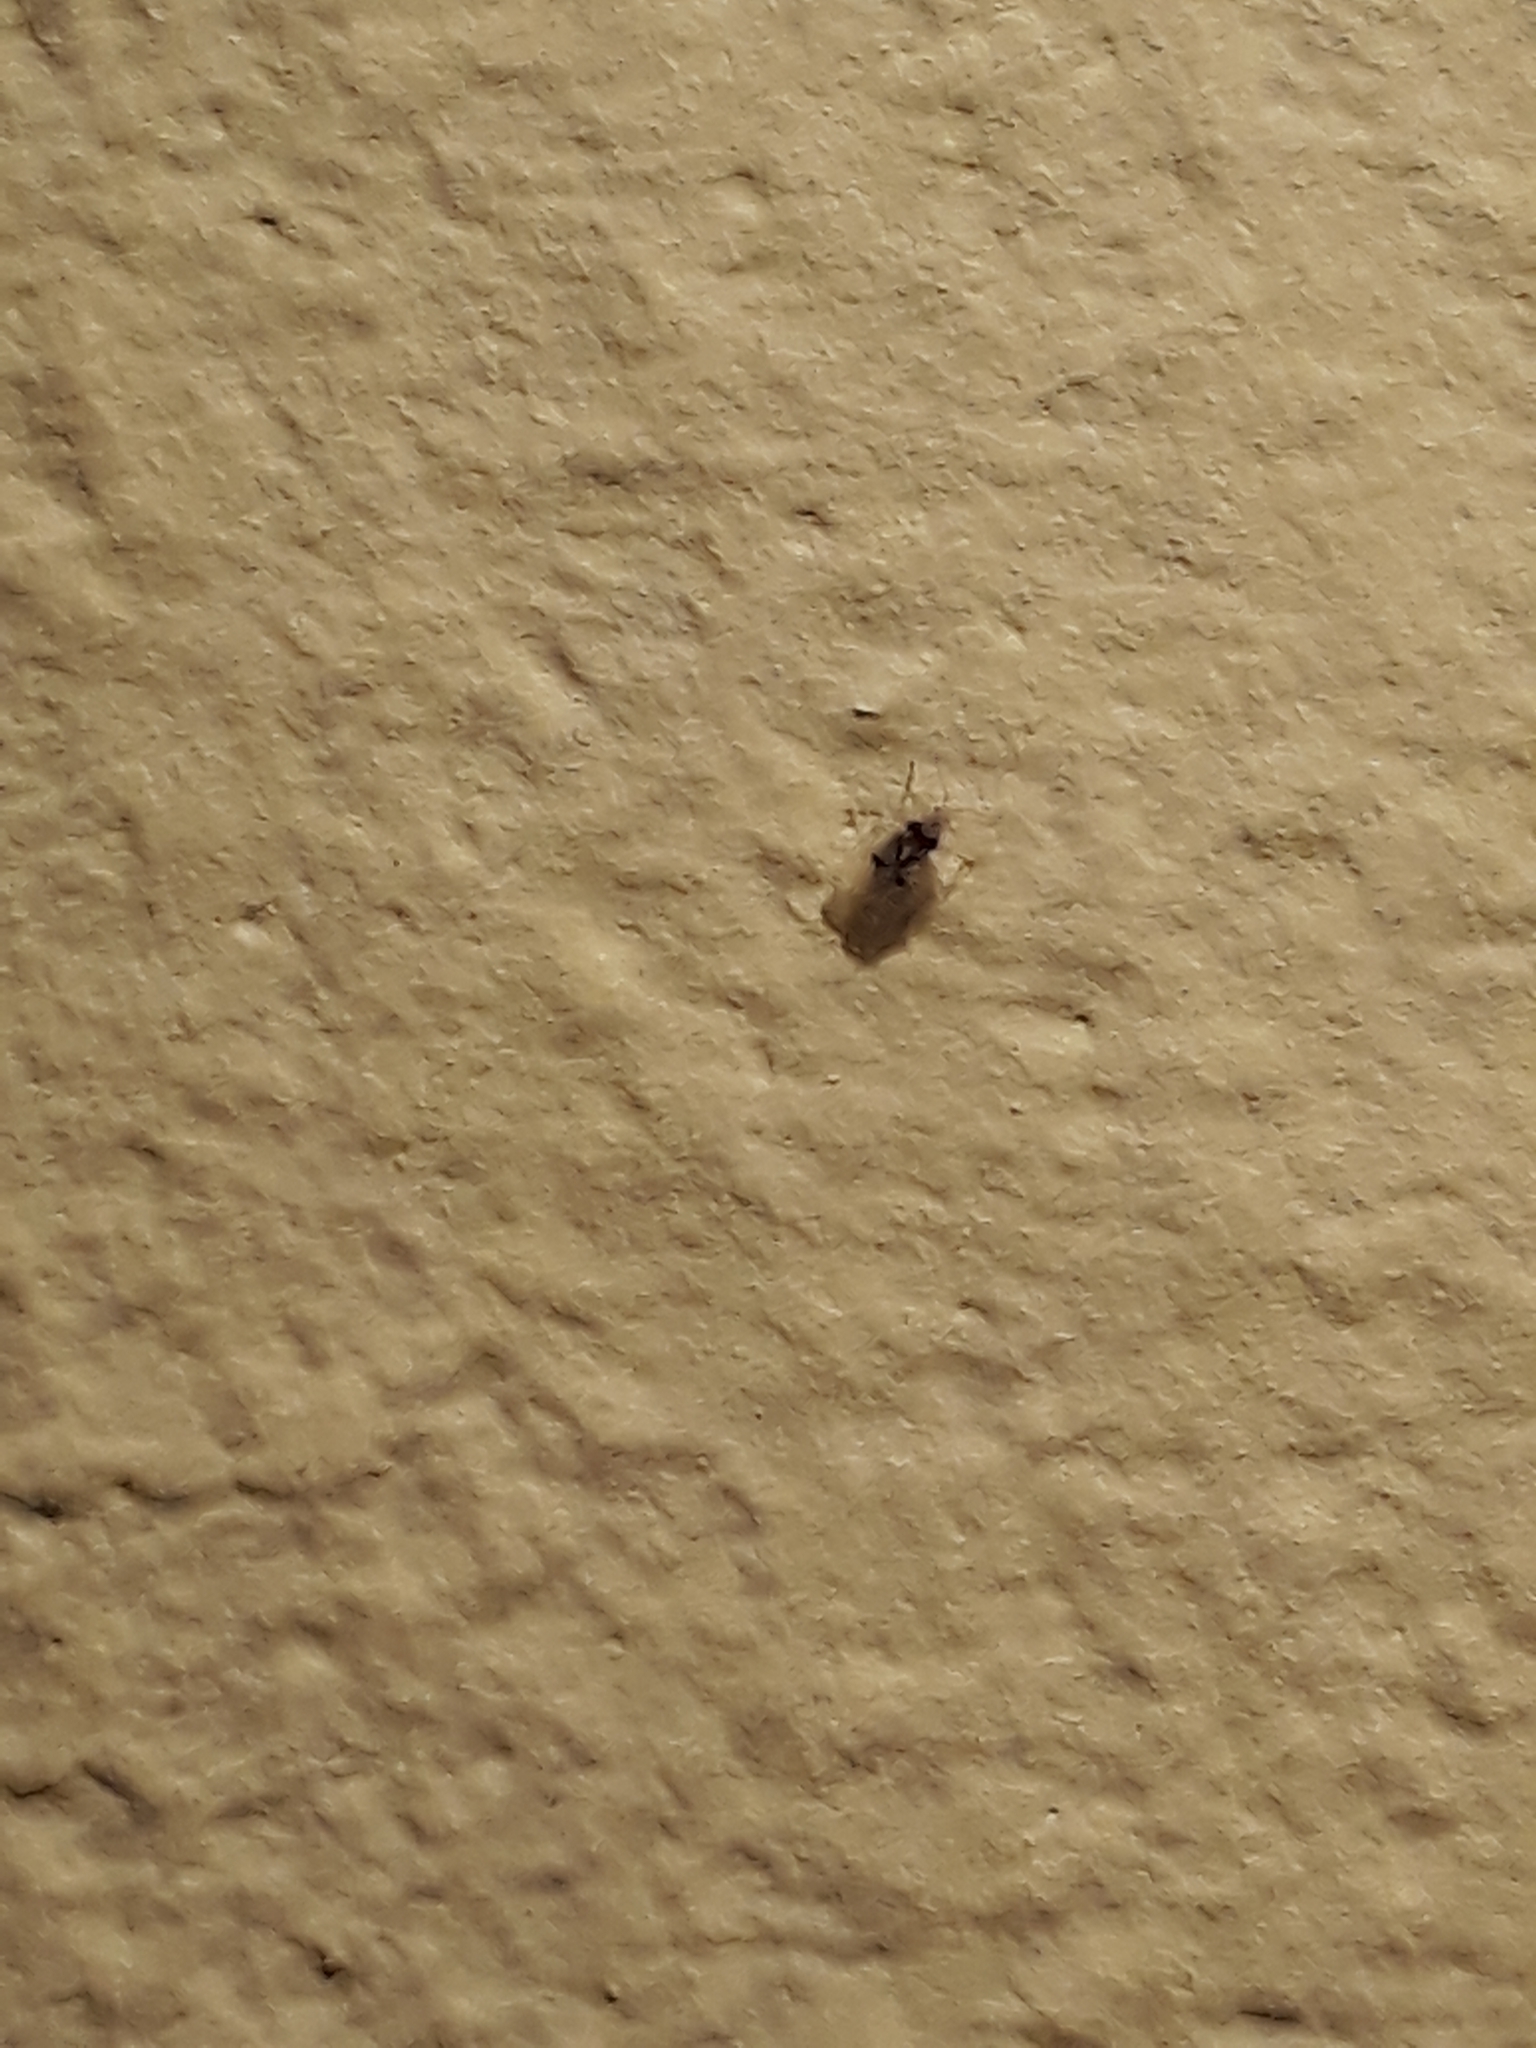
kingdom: Animalia
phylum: Arthropoda
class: Insecta
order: Hemiptera
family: Tingidae
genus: Corythucha
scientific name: Corythucha ciliata
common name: Sycamore lace bug
